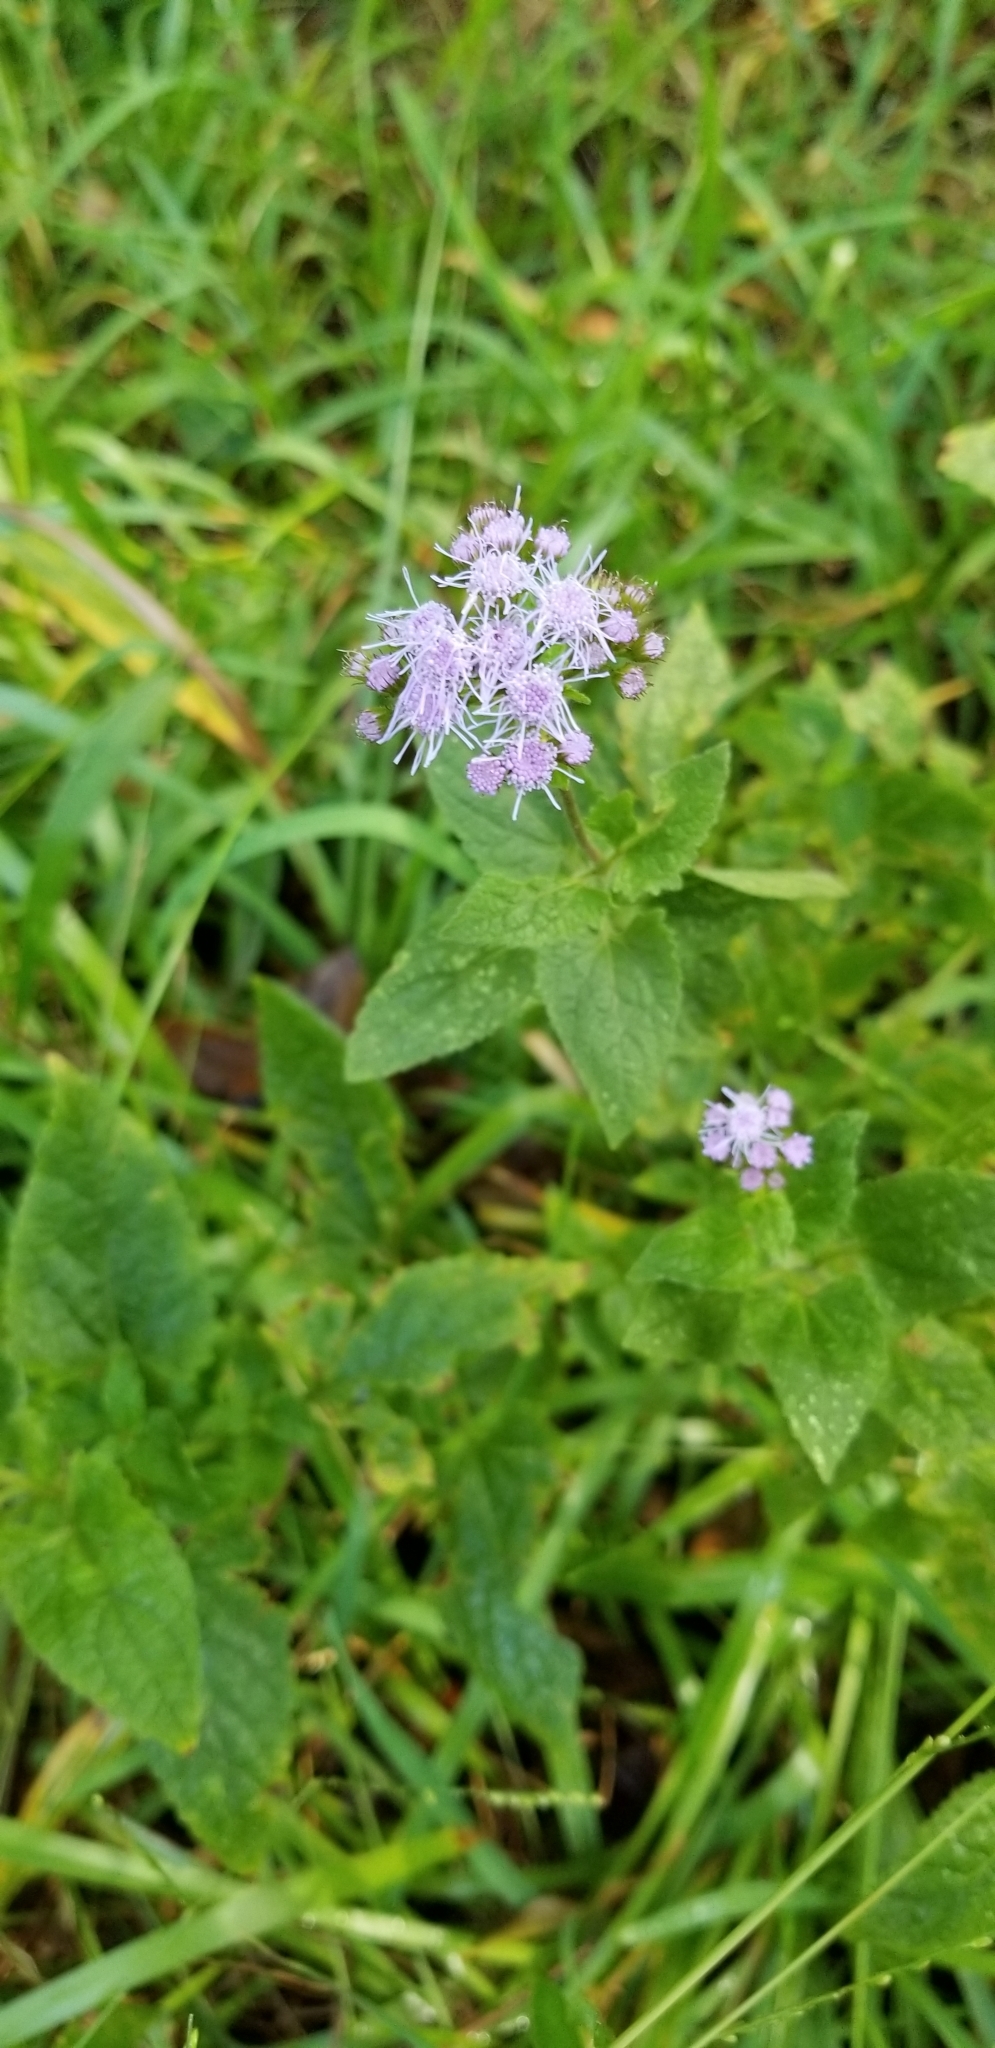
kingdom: Plantae
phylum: Tracheophyta
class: Magnoliopsida
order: Asterales
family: Asteraceae
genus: Conoclinium
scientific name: Conoclinium coelestinum
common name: Blue mistflower
